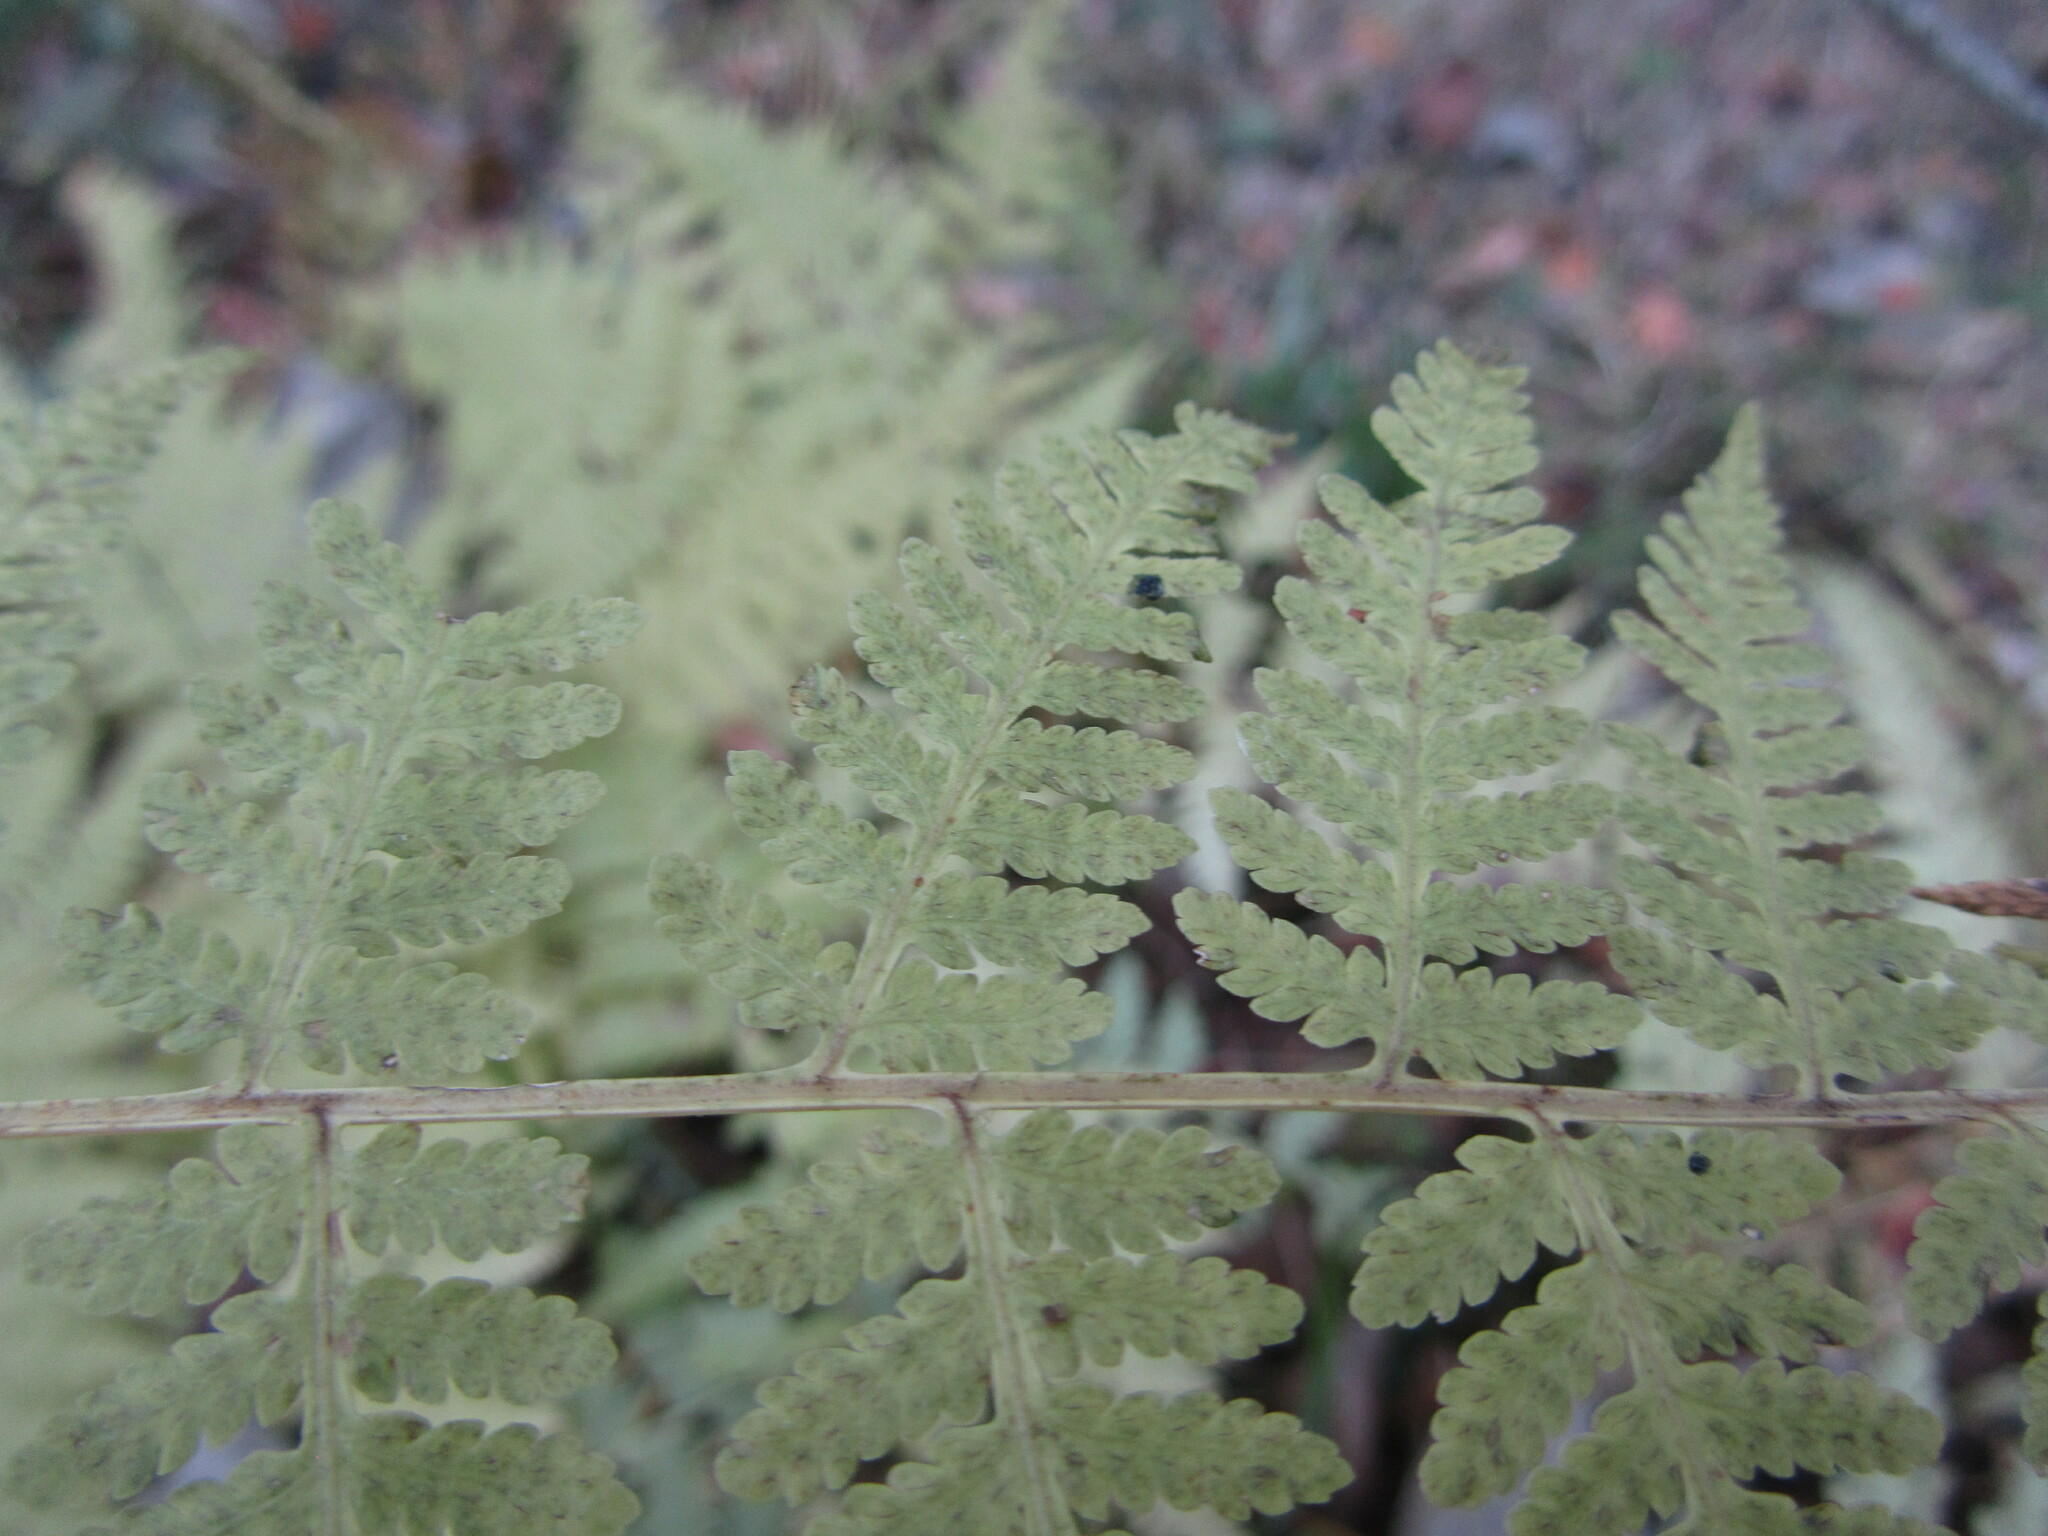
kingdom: Plantae
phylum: Tracheophyta
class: Polypodiopsida
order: Polypodiales
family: Thelypteridaceae
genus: Macrothelypteris
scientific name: Macrothelypteris viridifrons
